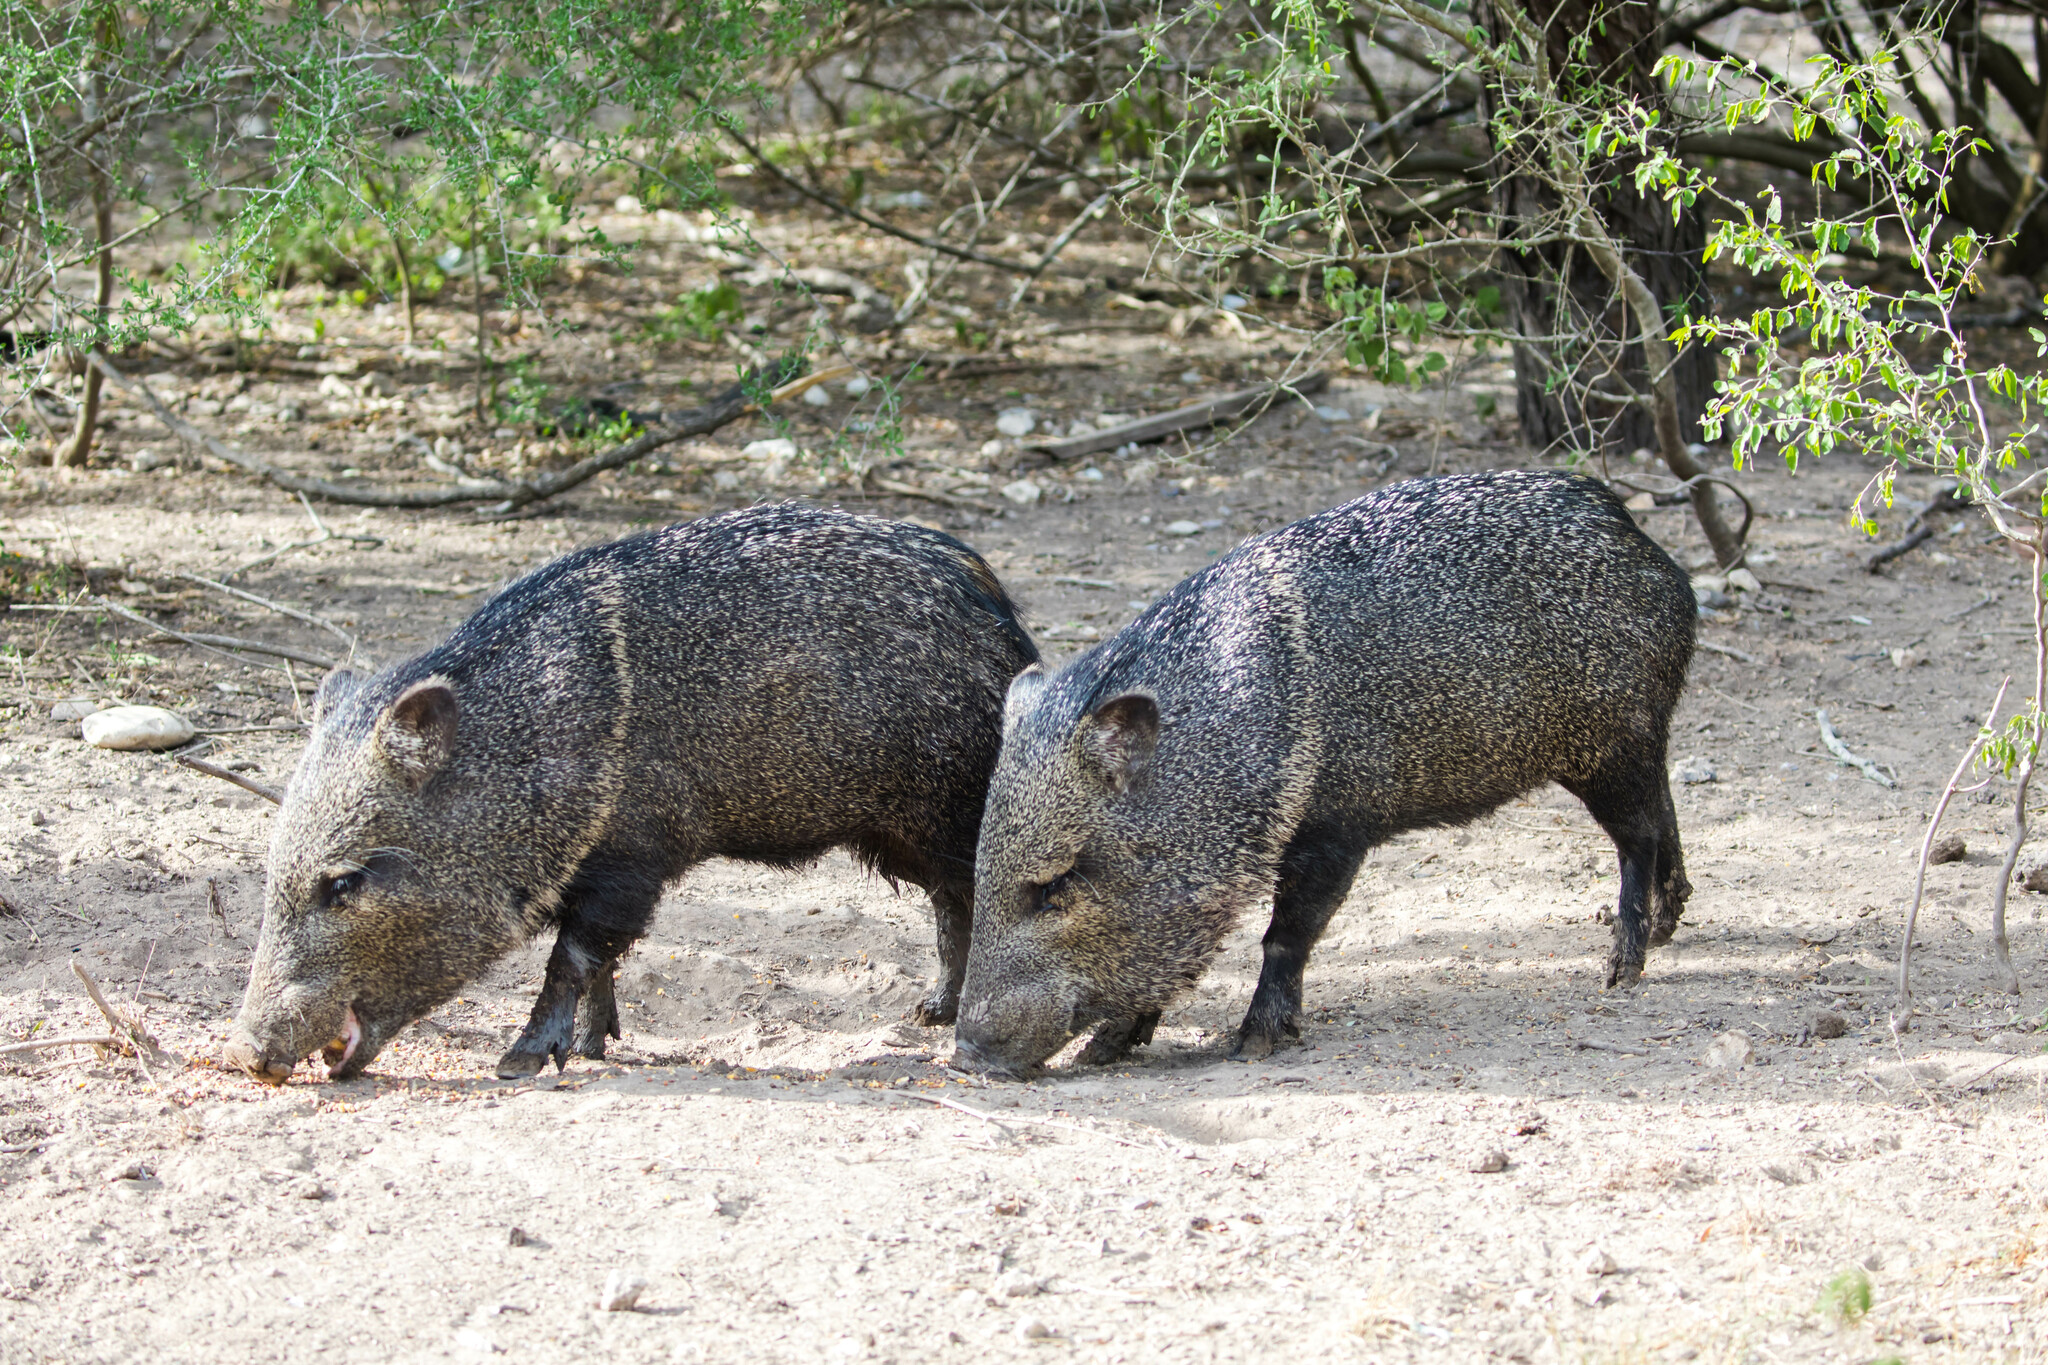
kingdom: Animalia
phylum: Chordata
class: Mammalia
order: Artiodactyla
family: Tayassuidae
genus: Pecari
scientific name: Pecari tajacu
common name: Collared peccary
